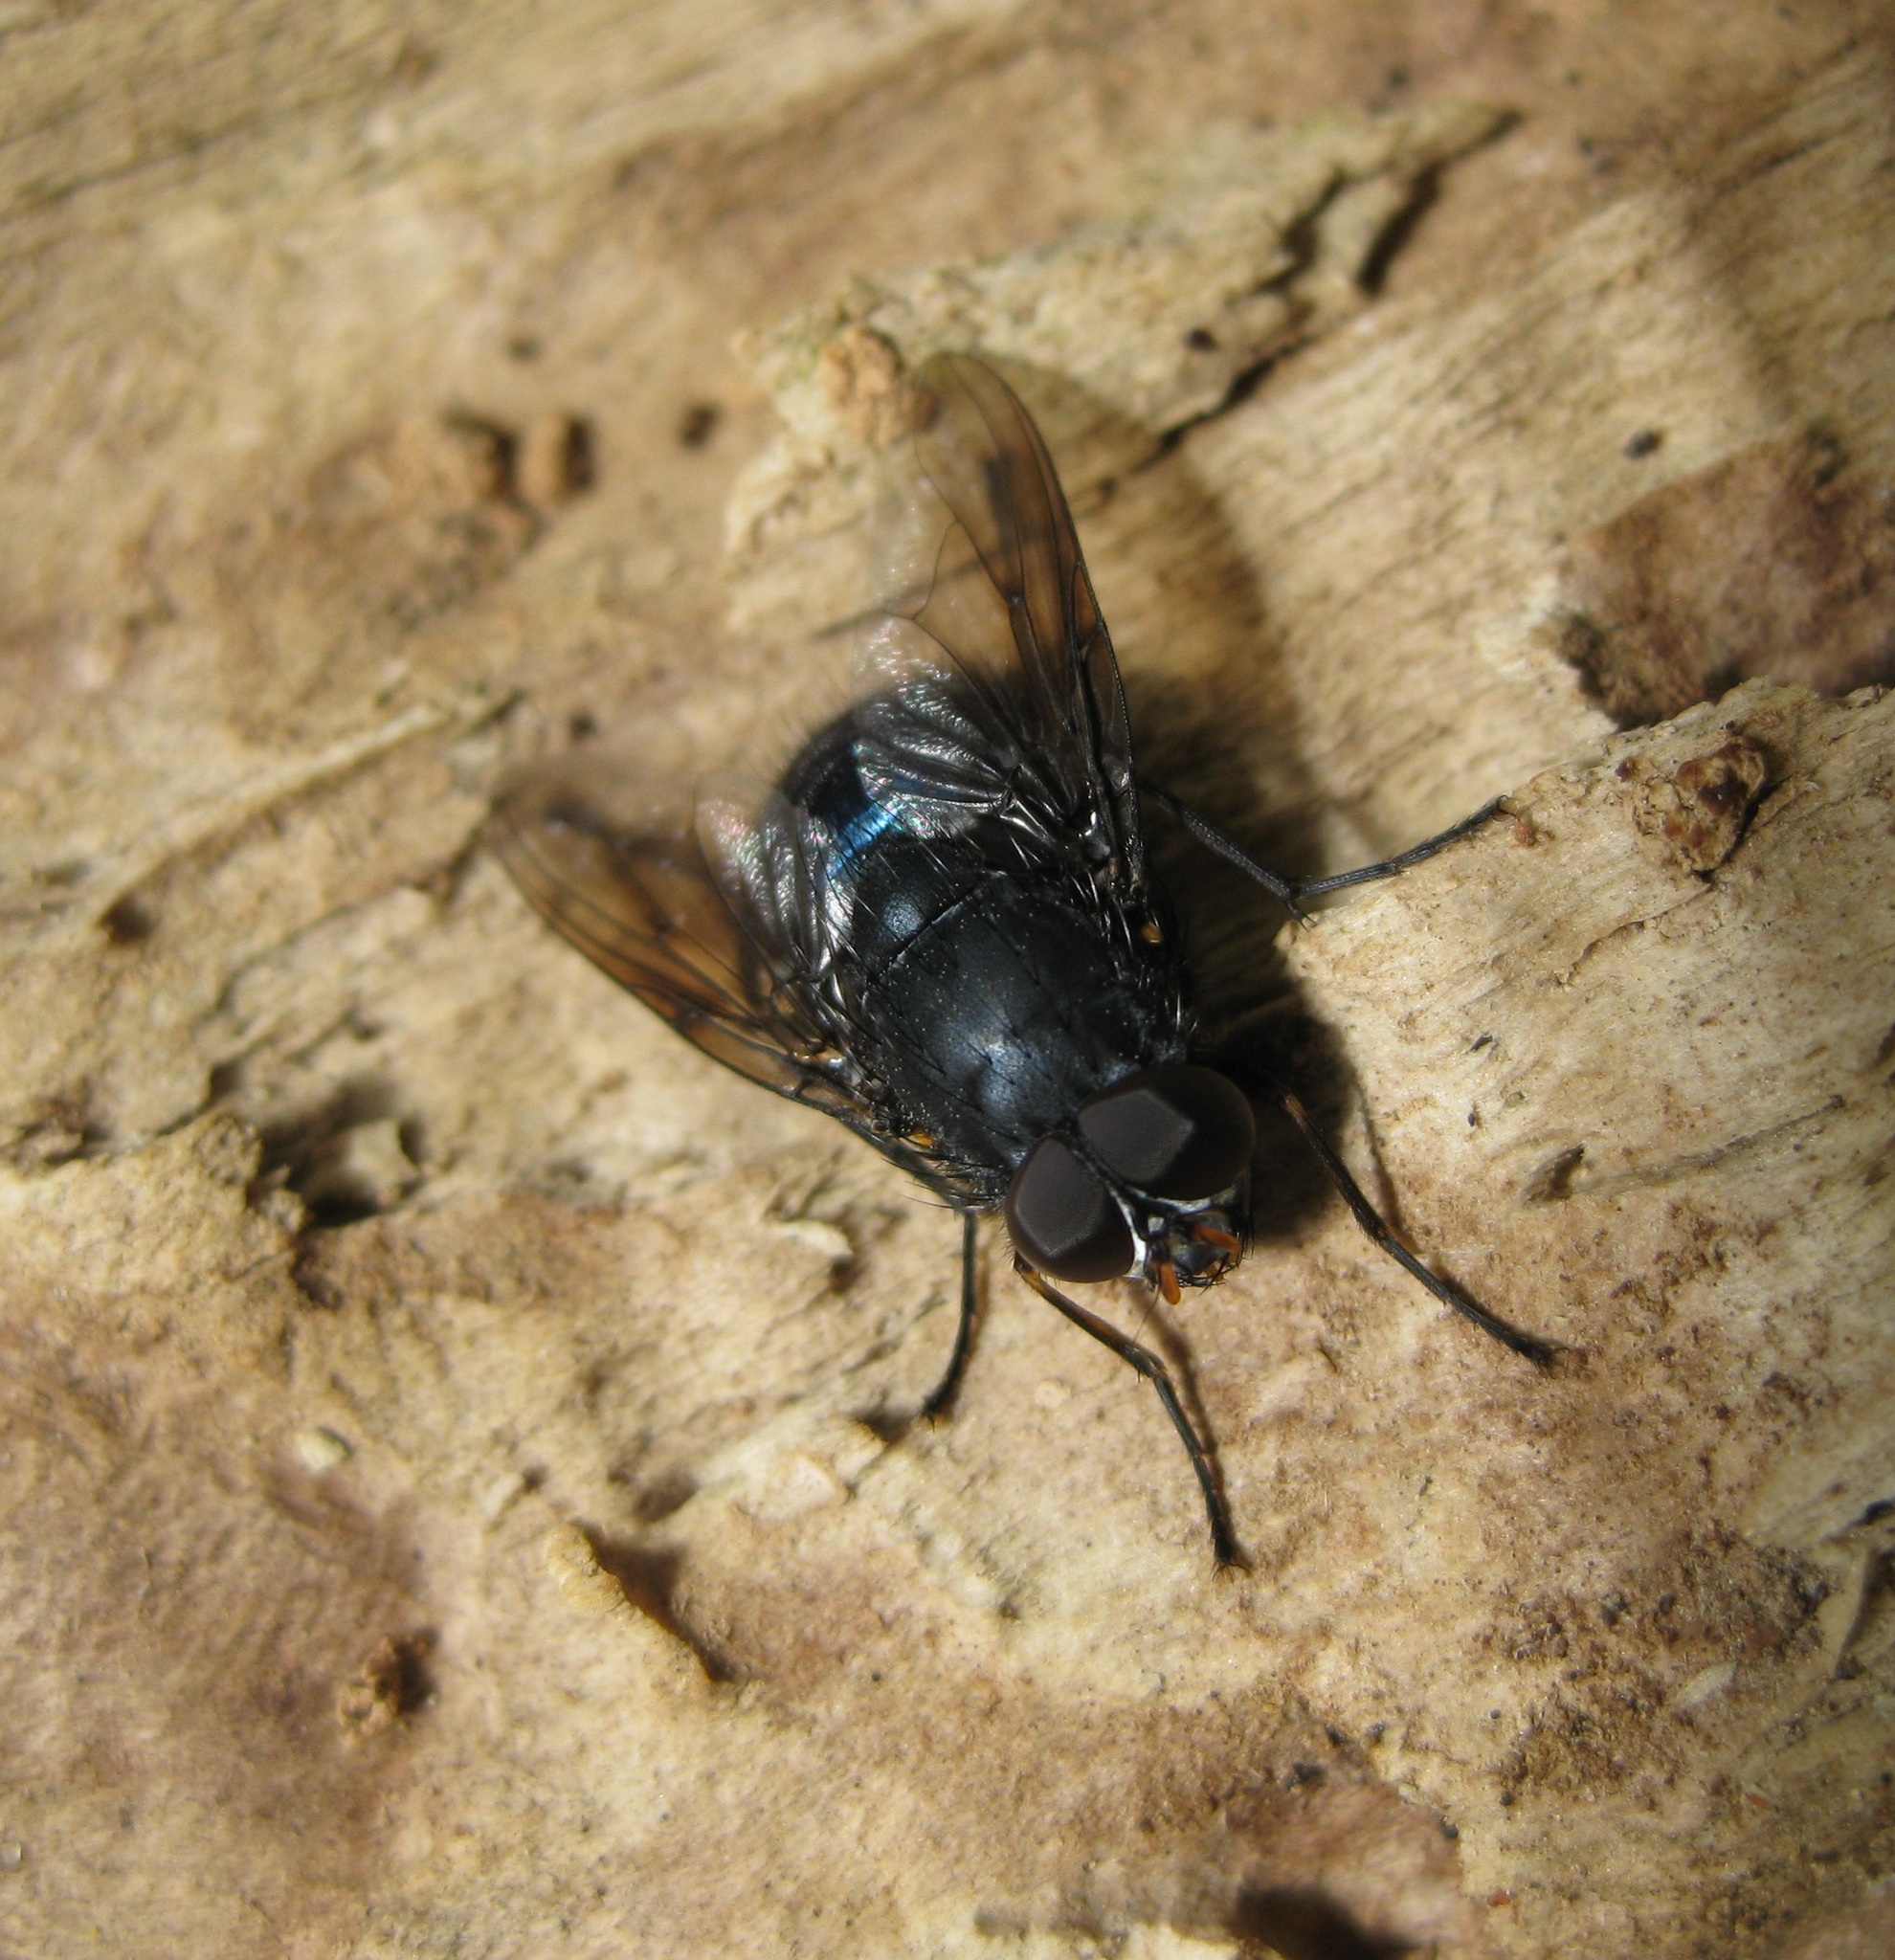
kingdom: Animalia
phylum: Arthropoda
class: Insecta
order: Diptera
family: Muscidae
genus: Calliphoroides
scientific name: Calliphoroides antennatis
